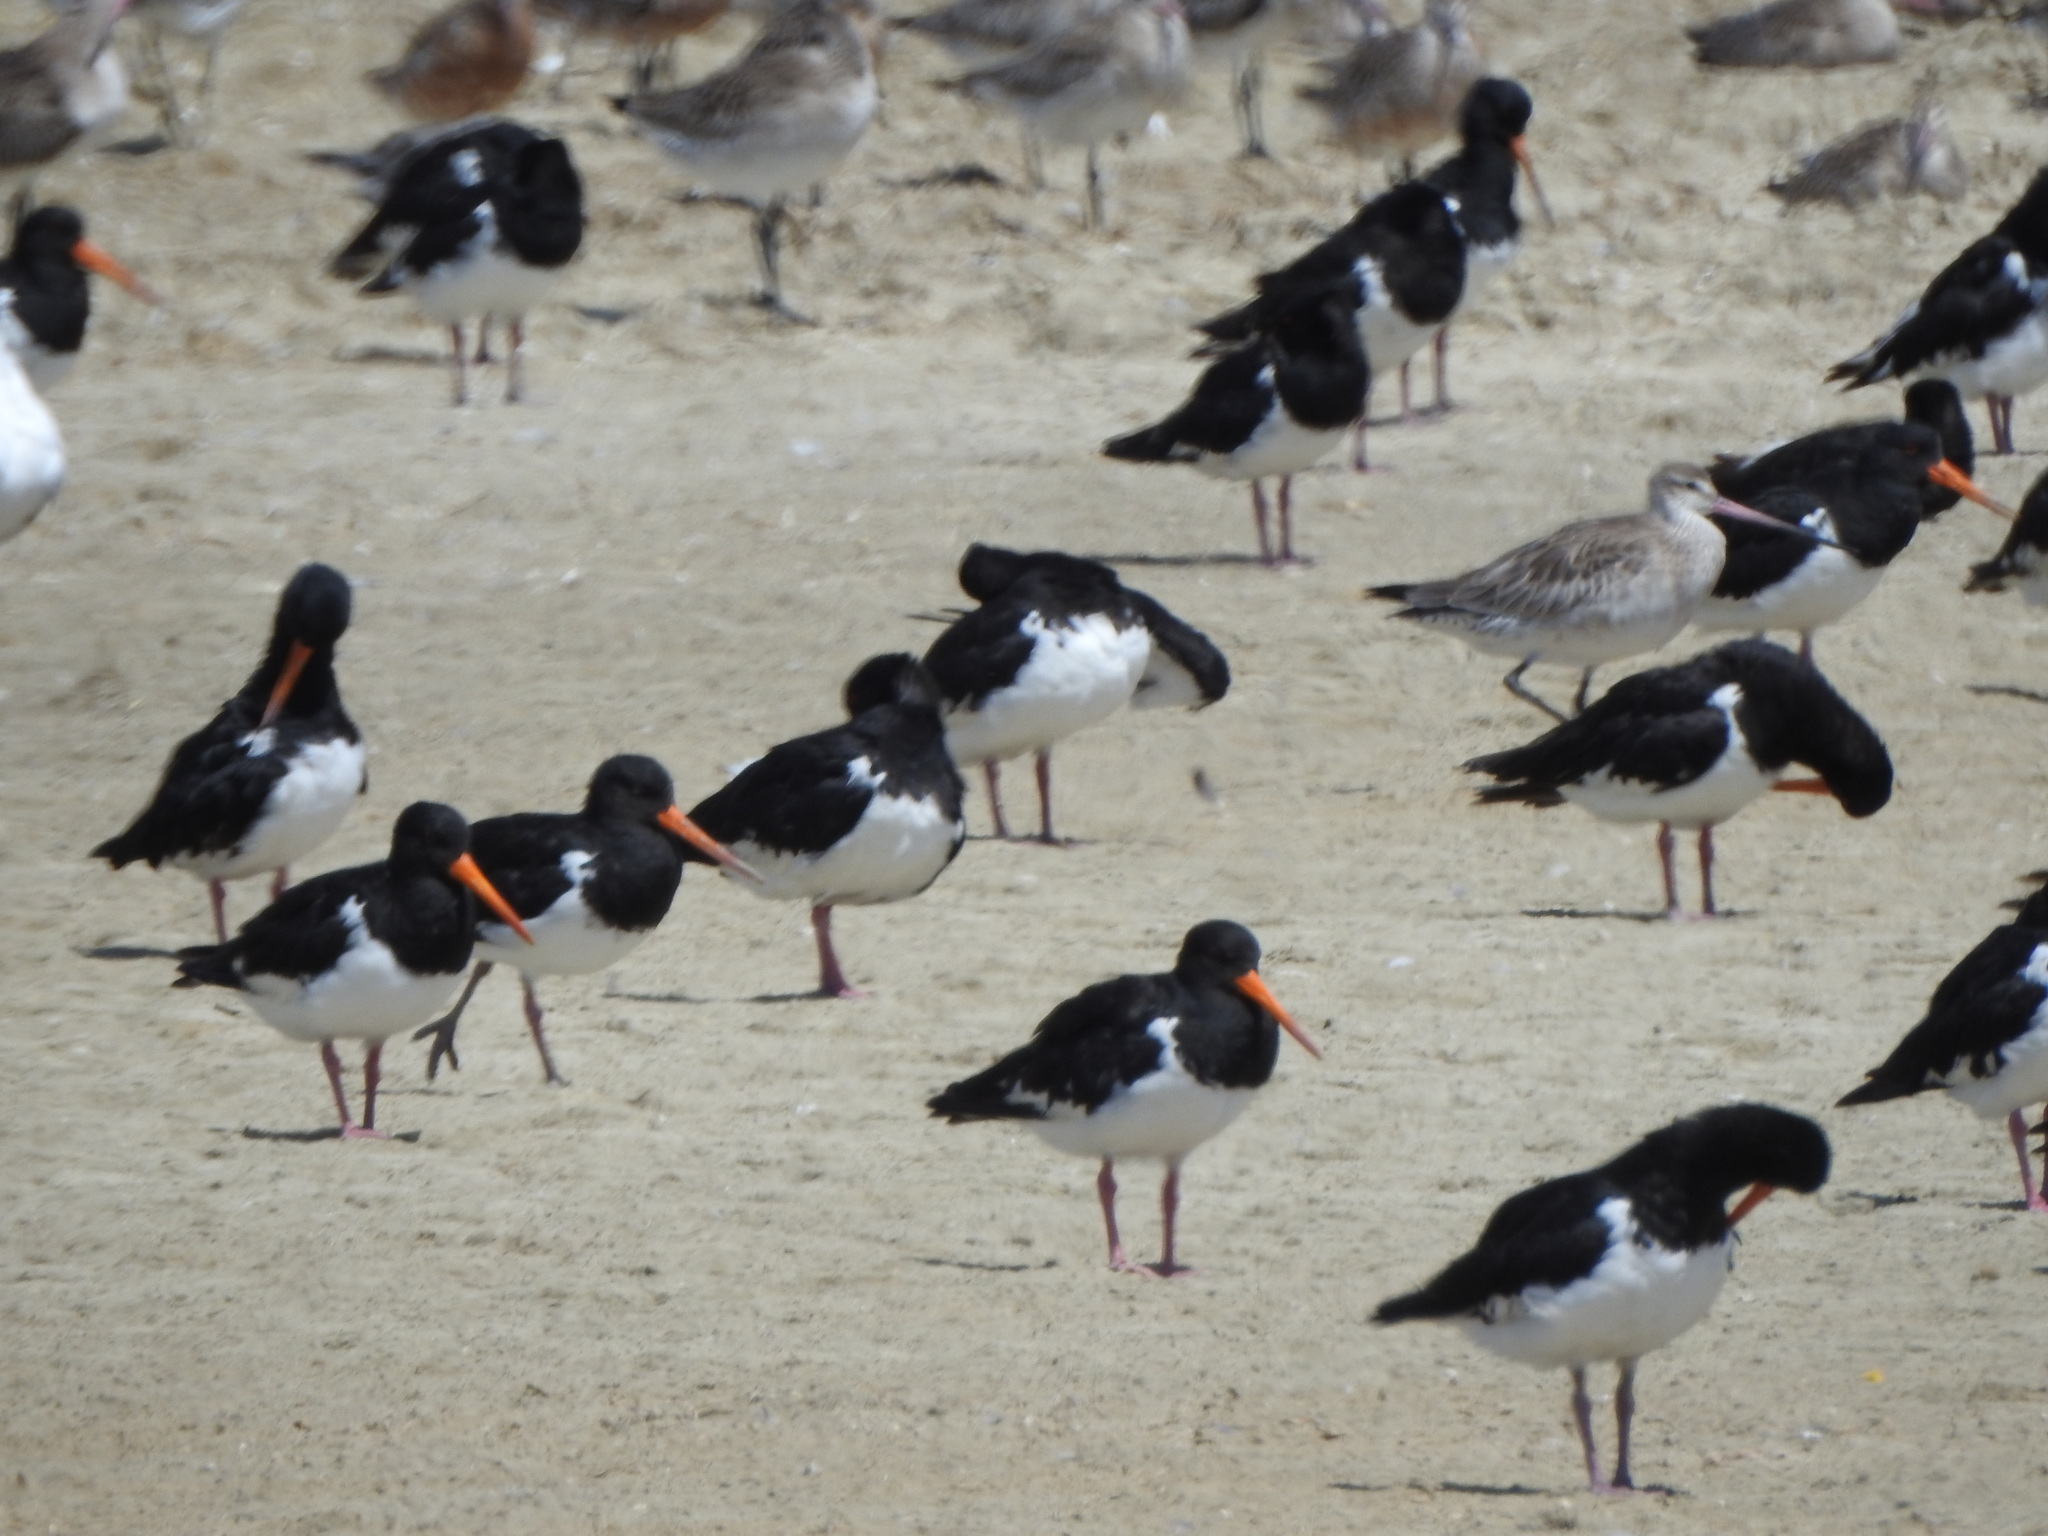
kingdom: Animalia
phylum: Chordata
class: Aves
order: Charadriiformes
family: Haematopodidae
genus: Haematopus
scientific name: Haematopus finschi
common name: South island oystercatcher
